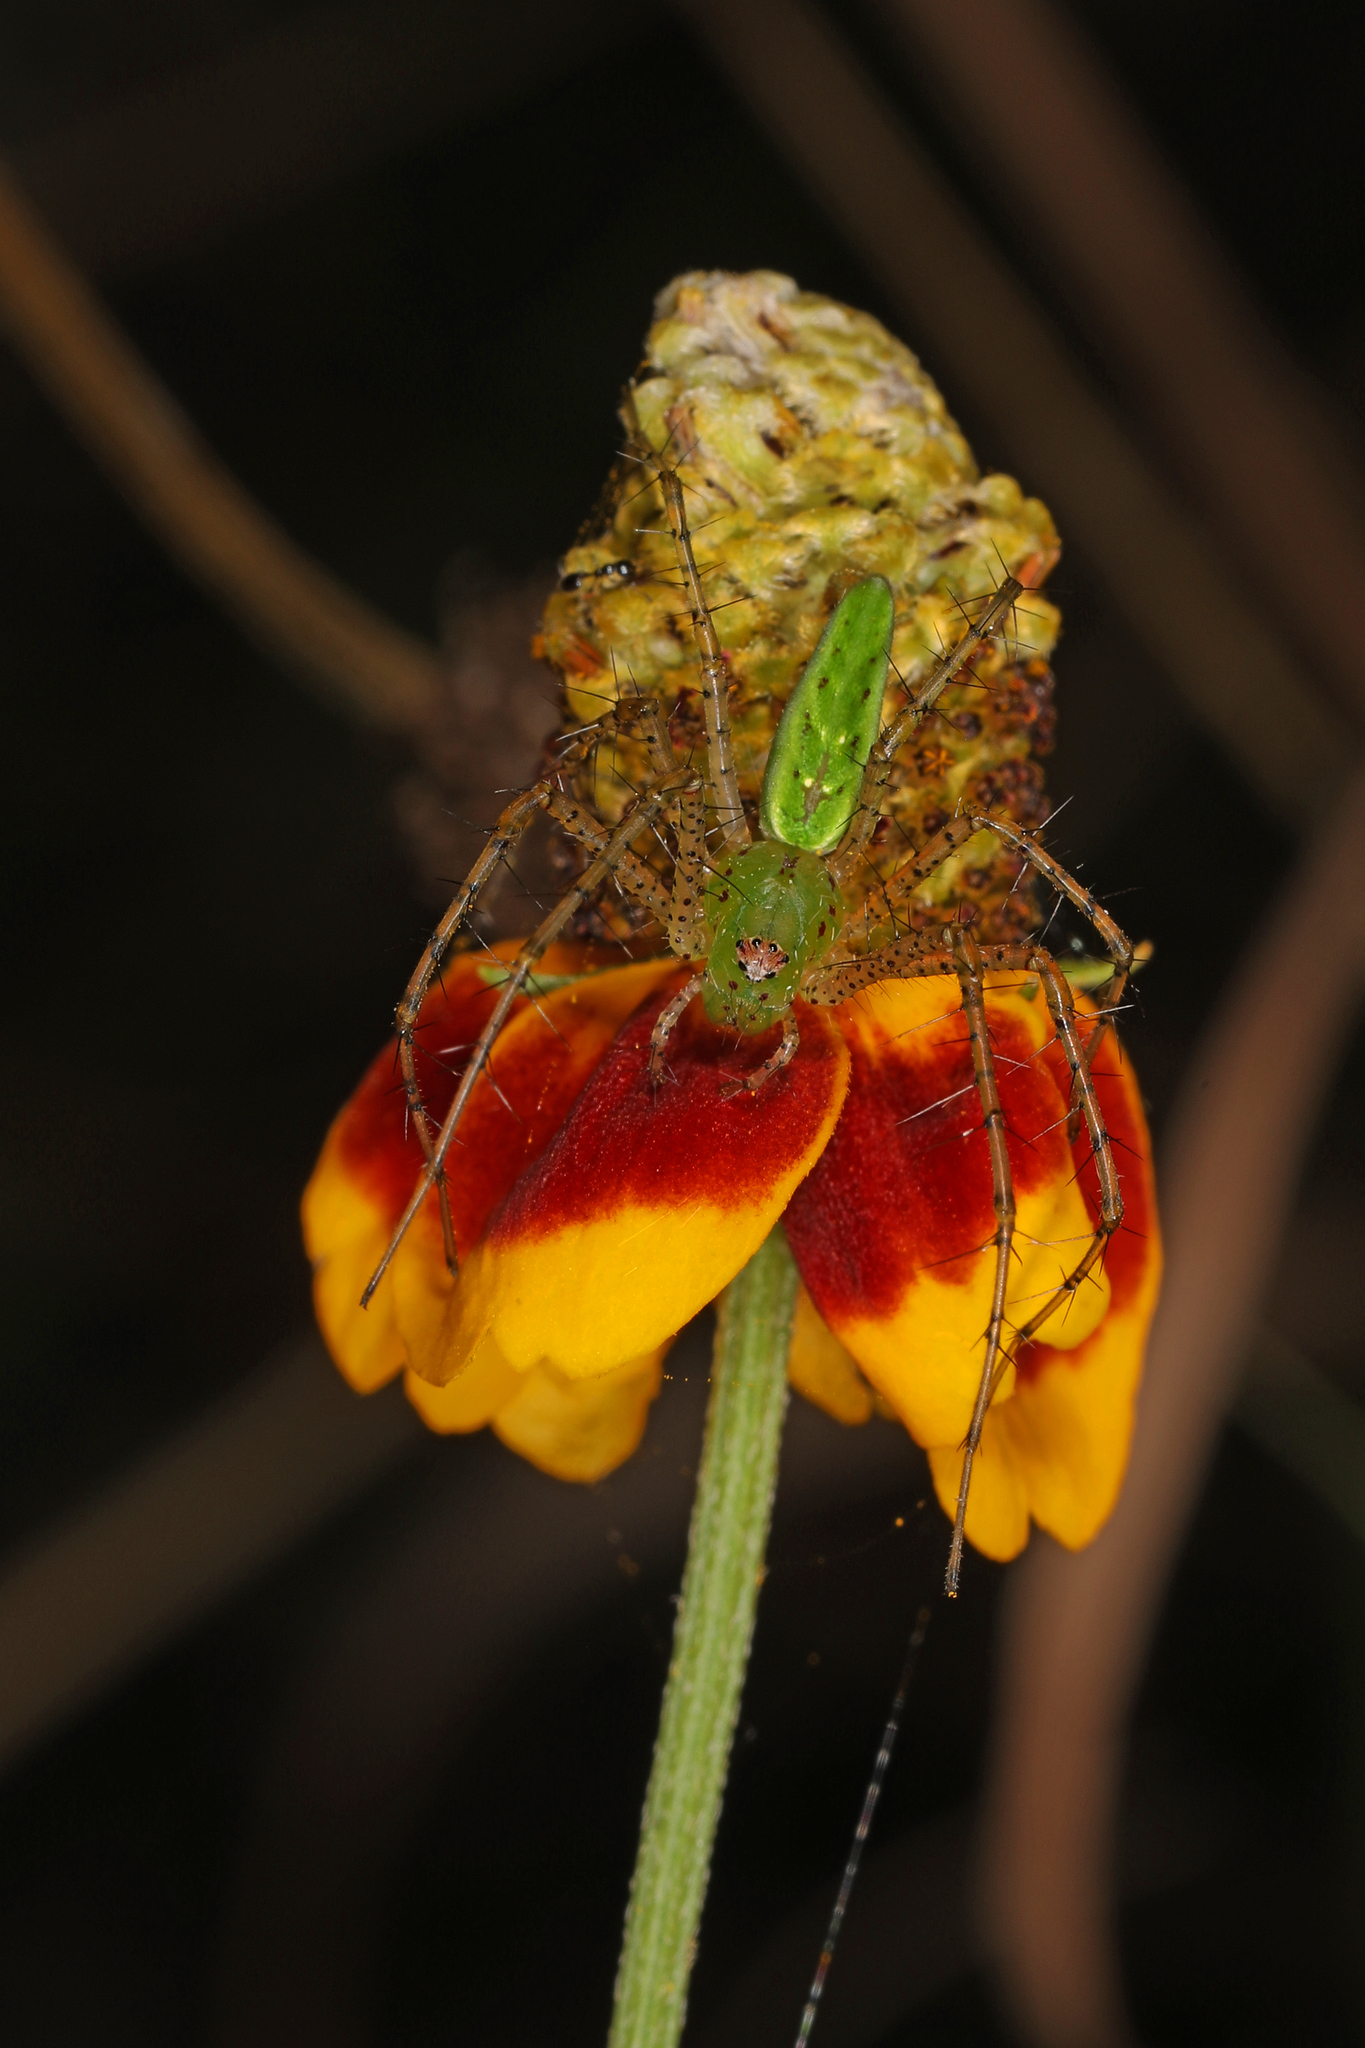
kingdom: Animalia
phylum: Arthropoda
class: Arachnida
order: Araneae
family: Oxyopidae
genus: Peucetia
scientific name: Peucetia viridans
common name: Lynx spiders
